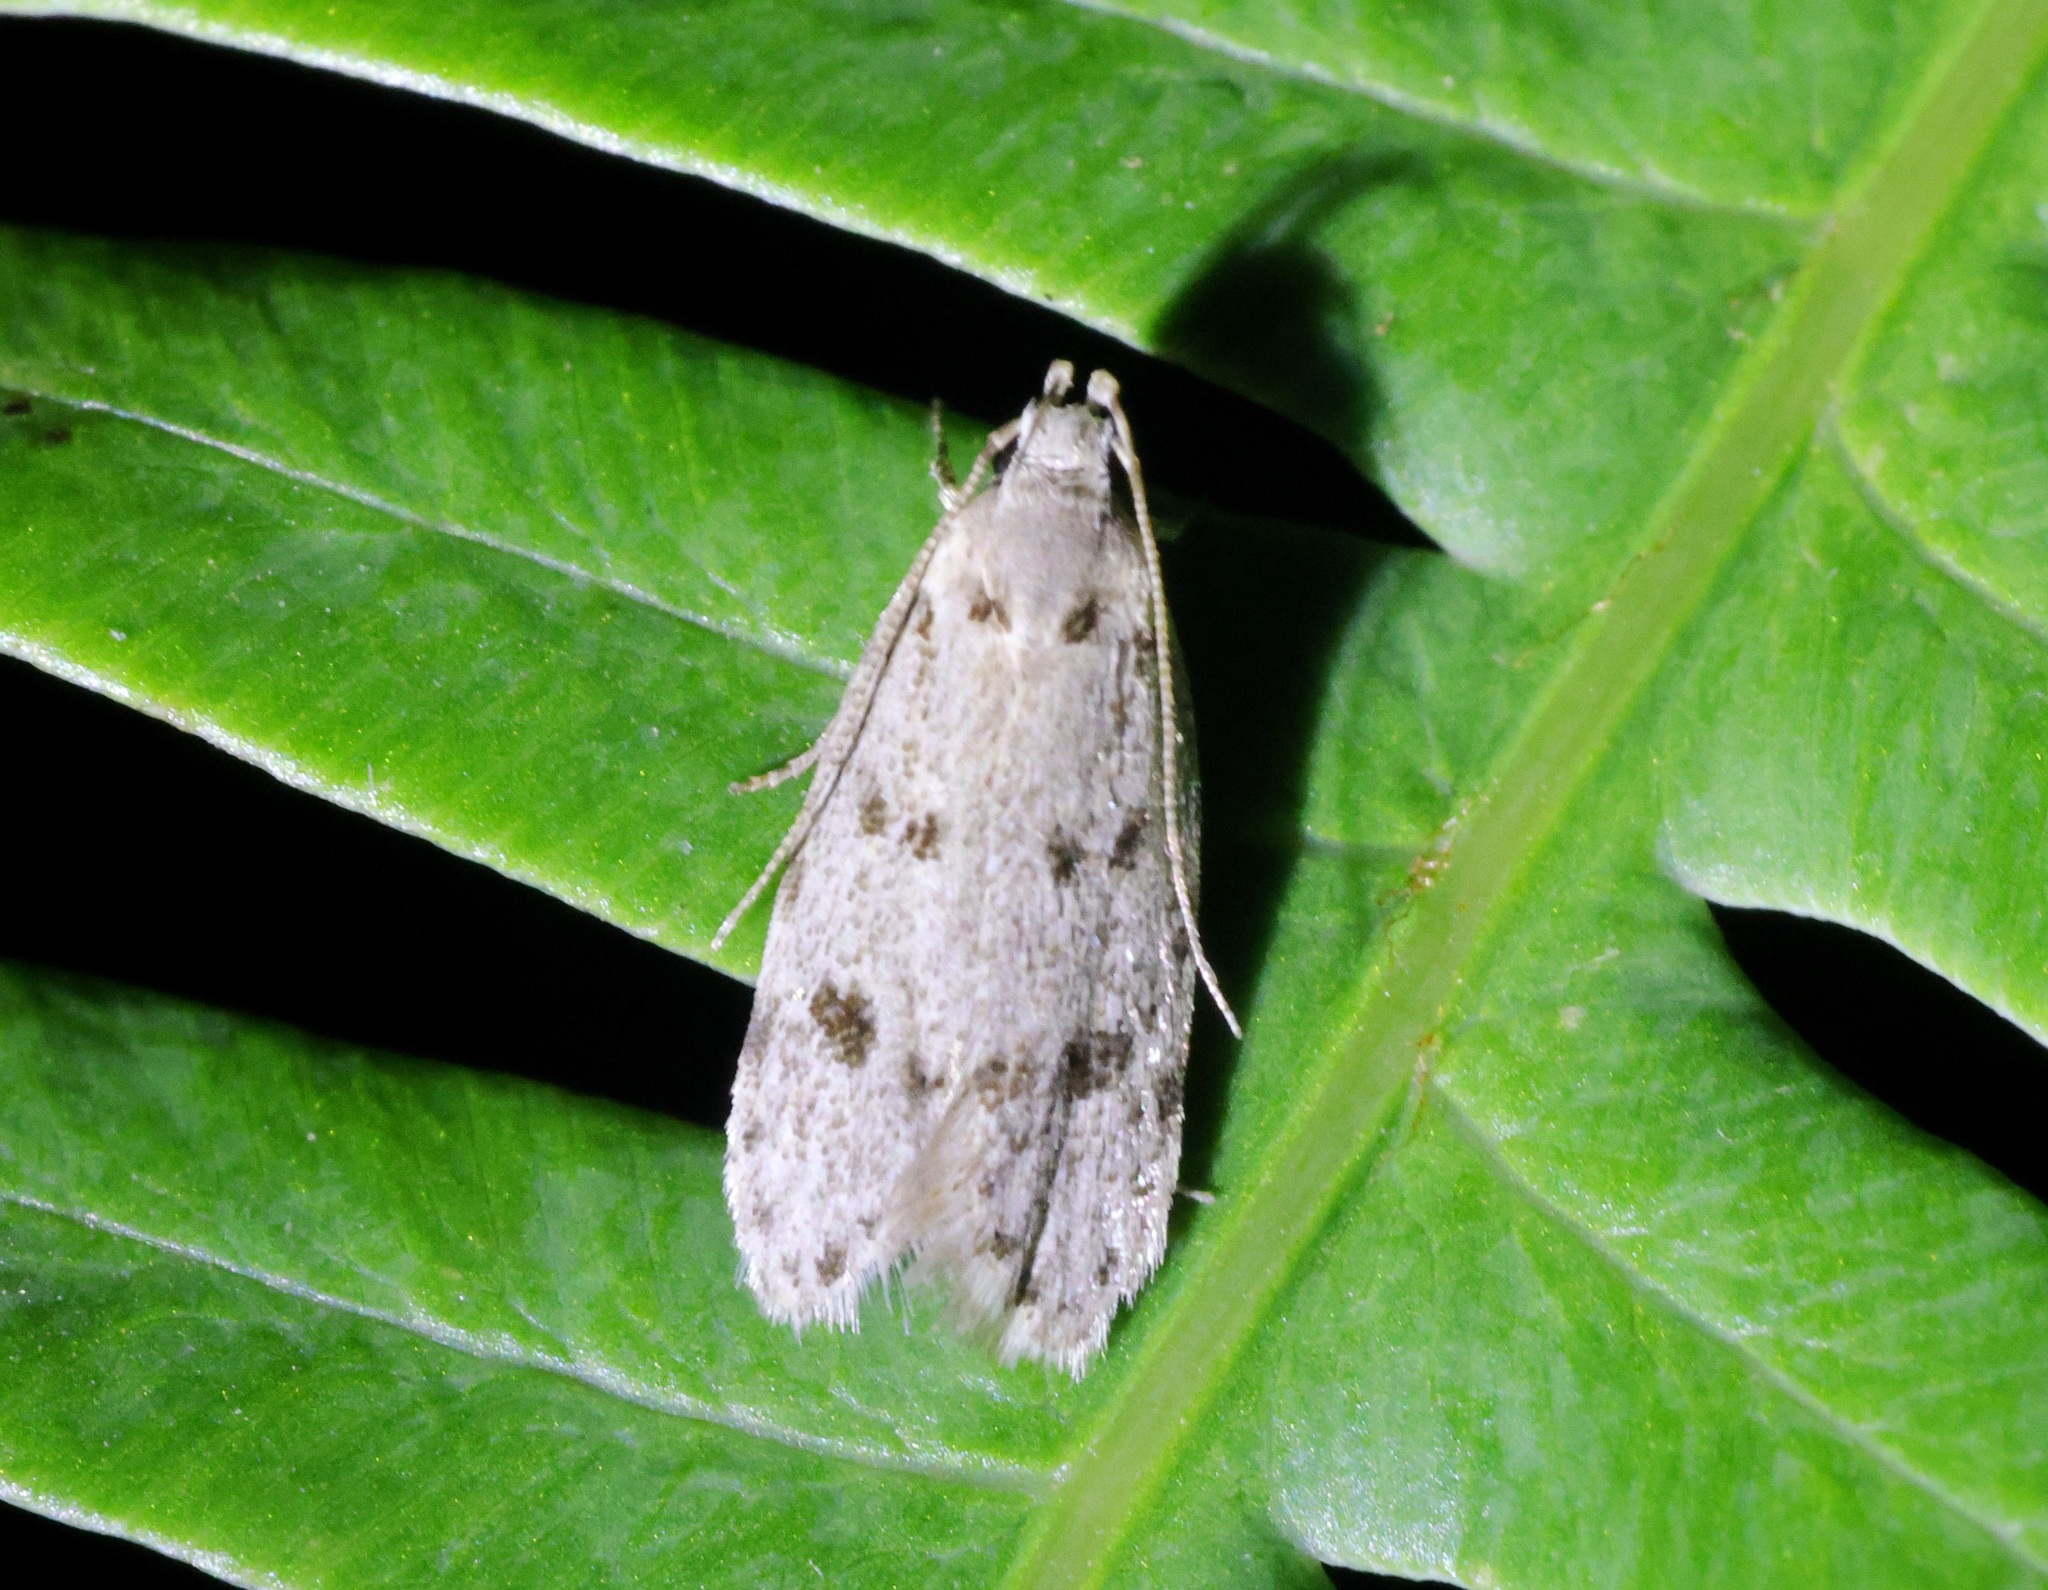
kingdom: Animalia
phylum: Arthropoda
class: Insecta
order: Lepidoptera
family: Autostichidae
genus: Autosticha
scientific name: Autosticha calceata
